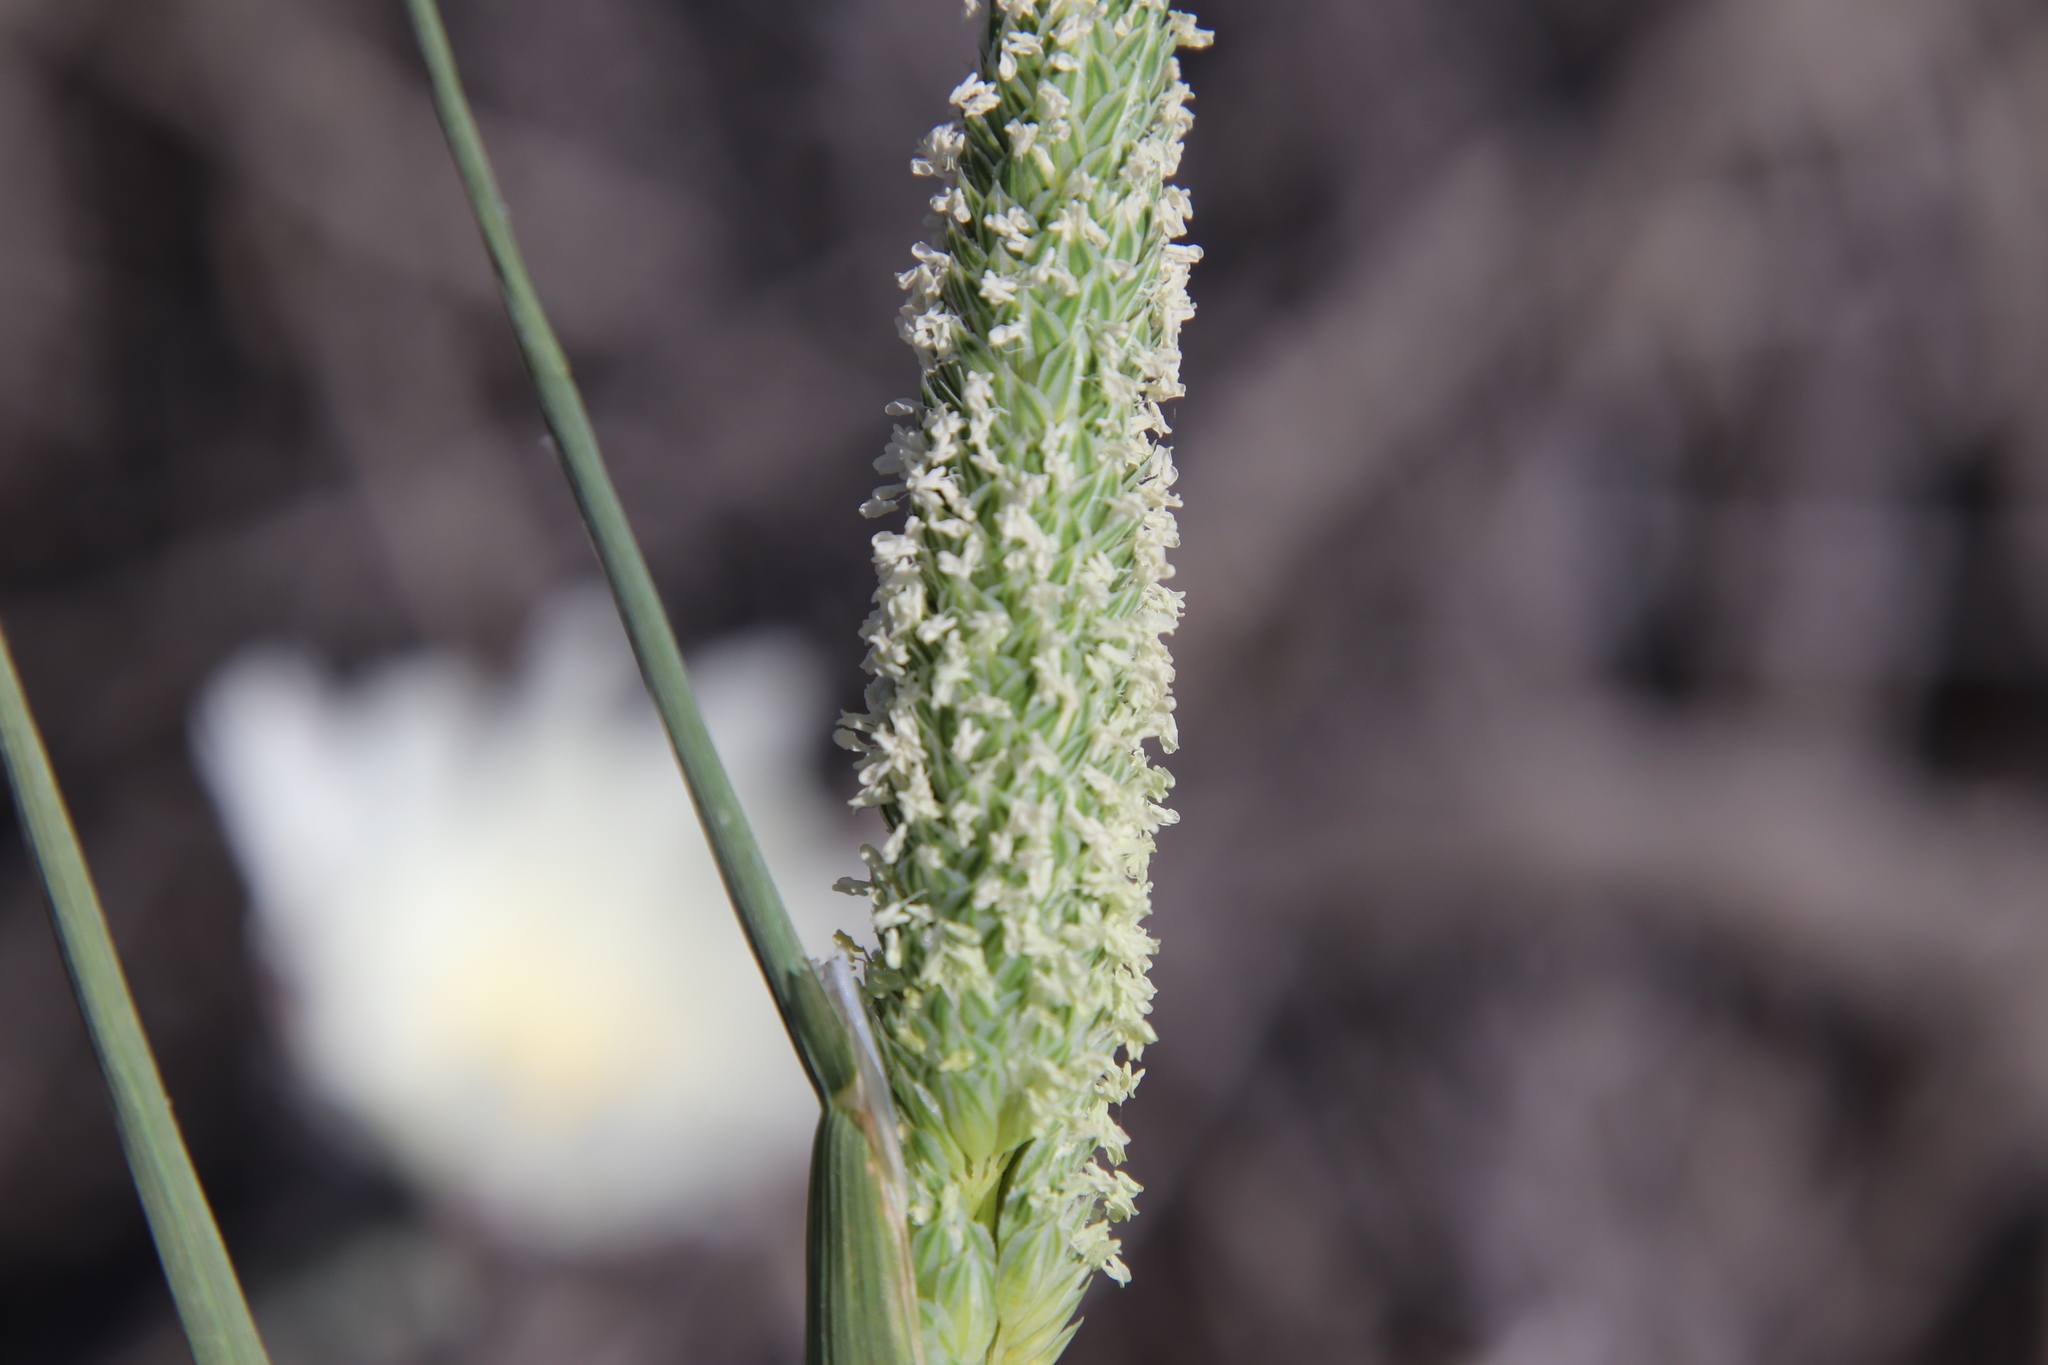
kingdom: Plantae
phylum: Tracheophyta
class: Liliopsida
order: Poales
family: Poaceae
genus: Phalaris
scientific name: Phalaris minor
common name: Littleseed canarygrass
